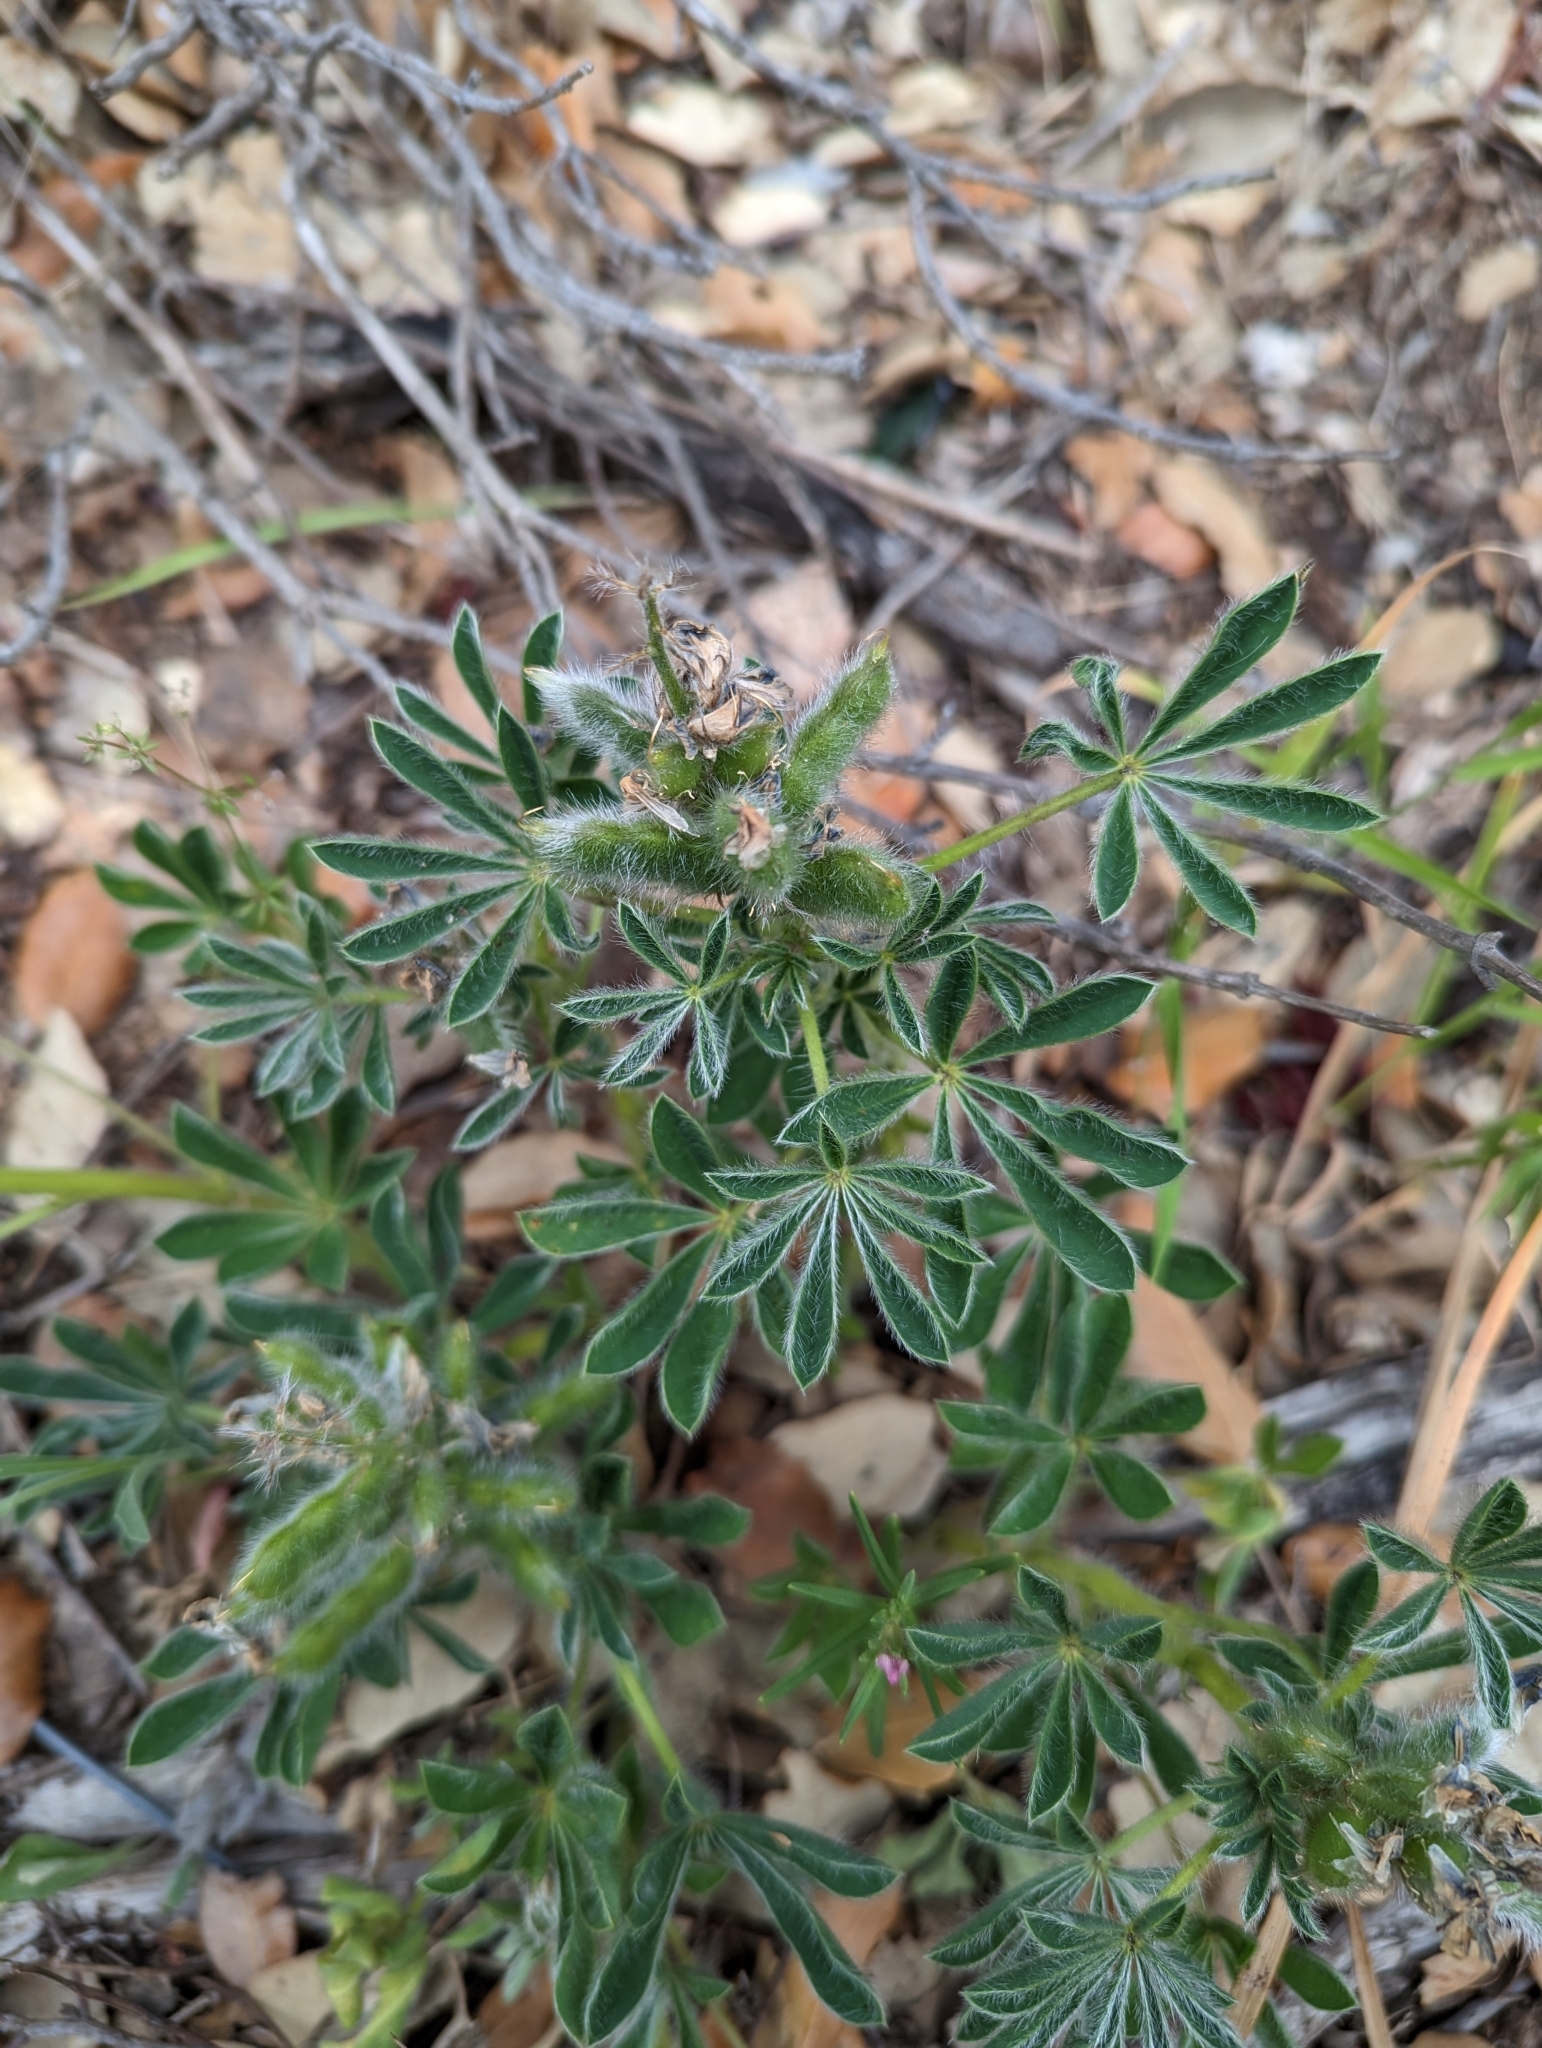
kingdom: Plantae
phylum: Tracheophyta
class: Magnoliopsida
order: Fabales
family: Fabaceae
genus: Lupinus
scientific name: Lupinus gussoneanus
